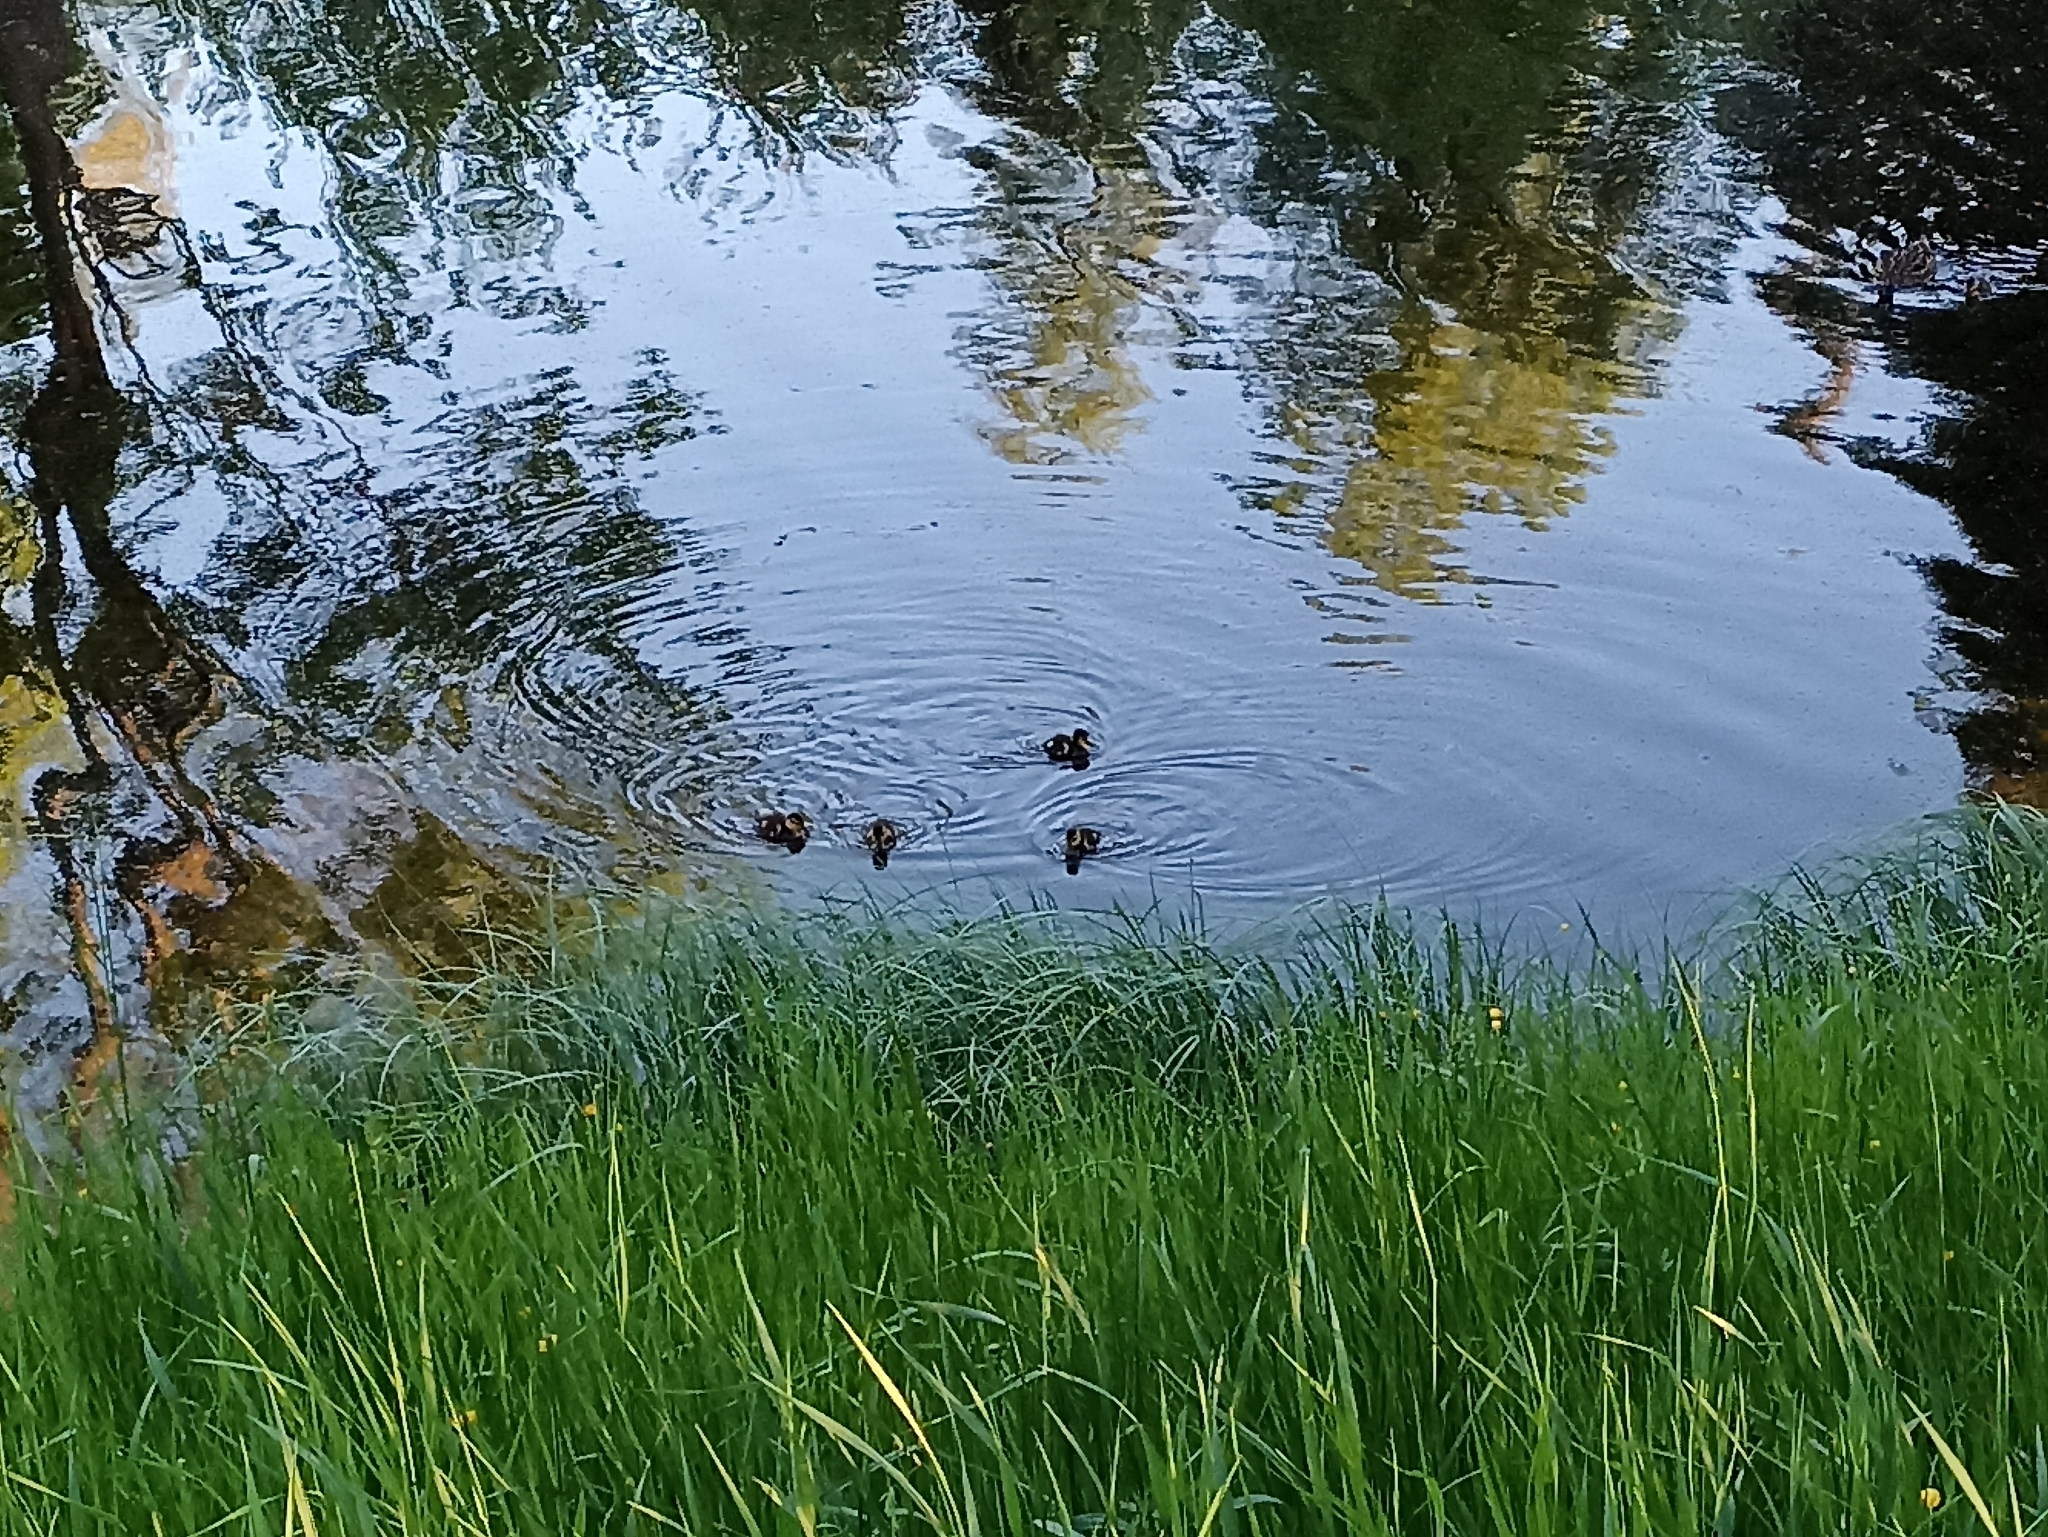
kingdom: Animalia
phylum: Chordata
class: Aves
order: Anseriformes
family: Anatidae
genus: Anas
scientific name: Anas platyrhynchos
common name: Mallard
